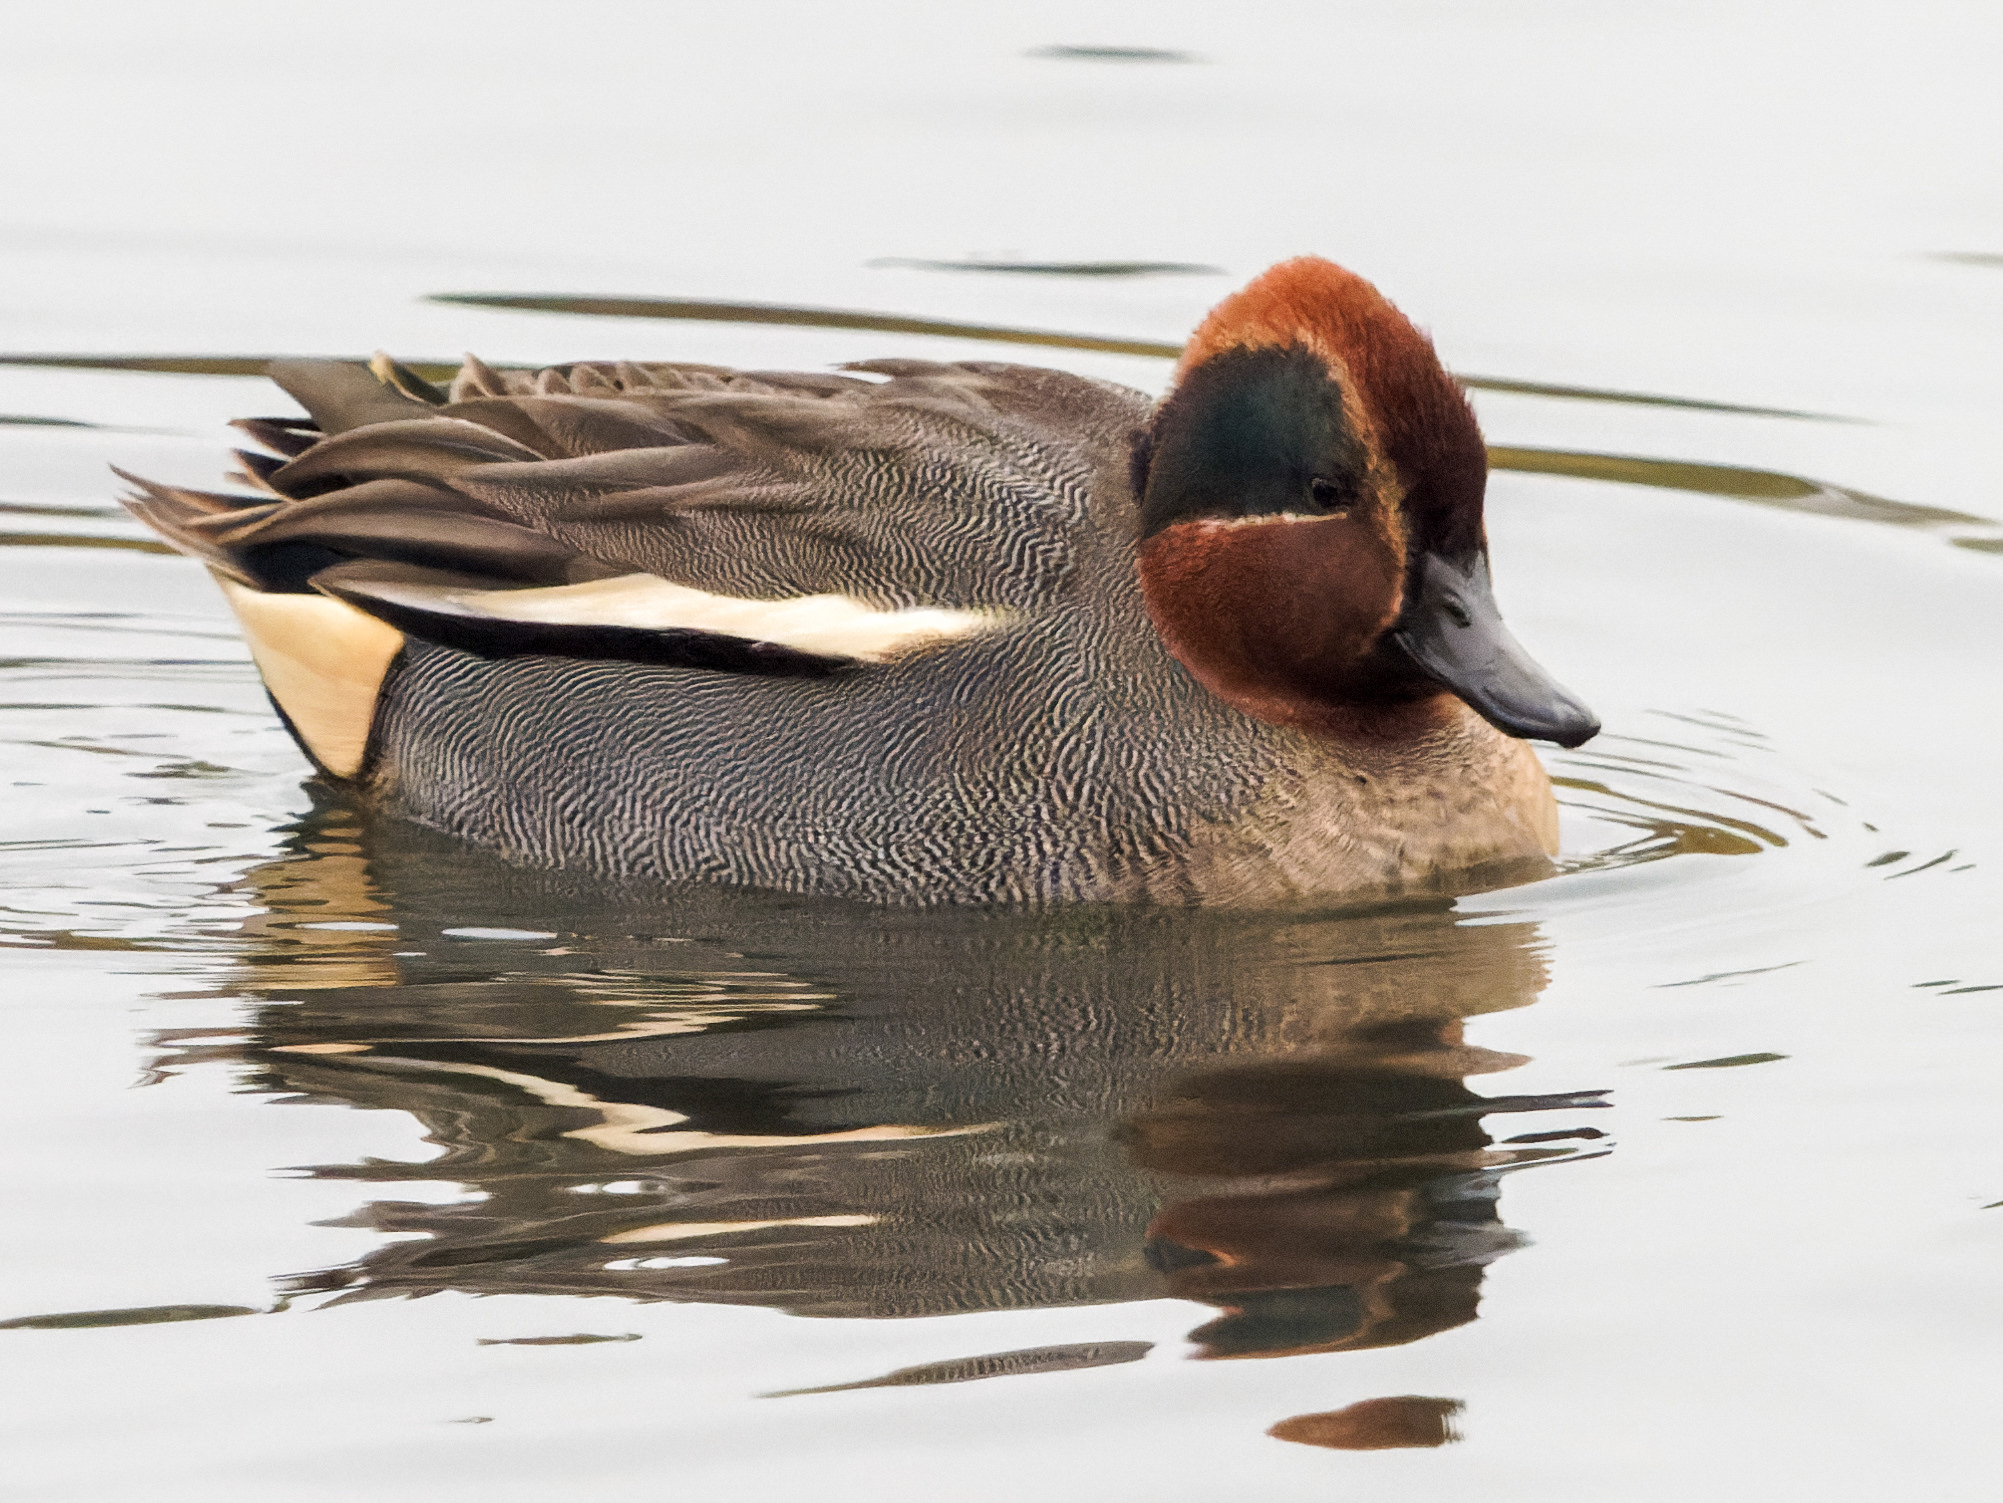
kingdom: Animalia
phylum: Chordata
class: Aves
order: Anseriformes
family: Anatidae
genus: Anas
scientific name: Anas crecca
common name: Eurasian teal
